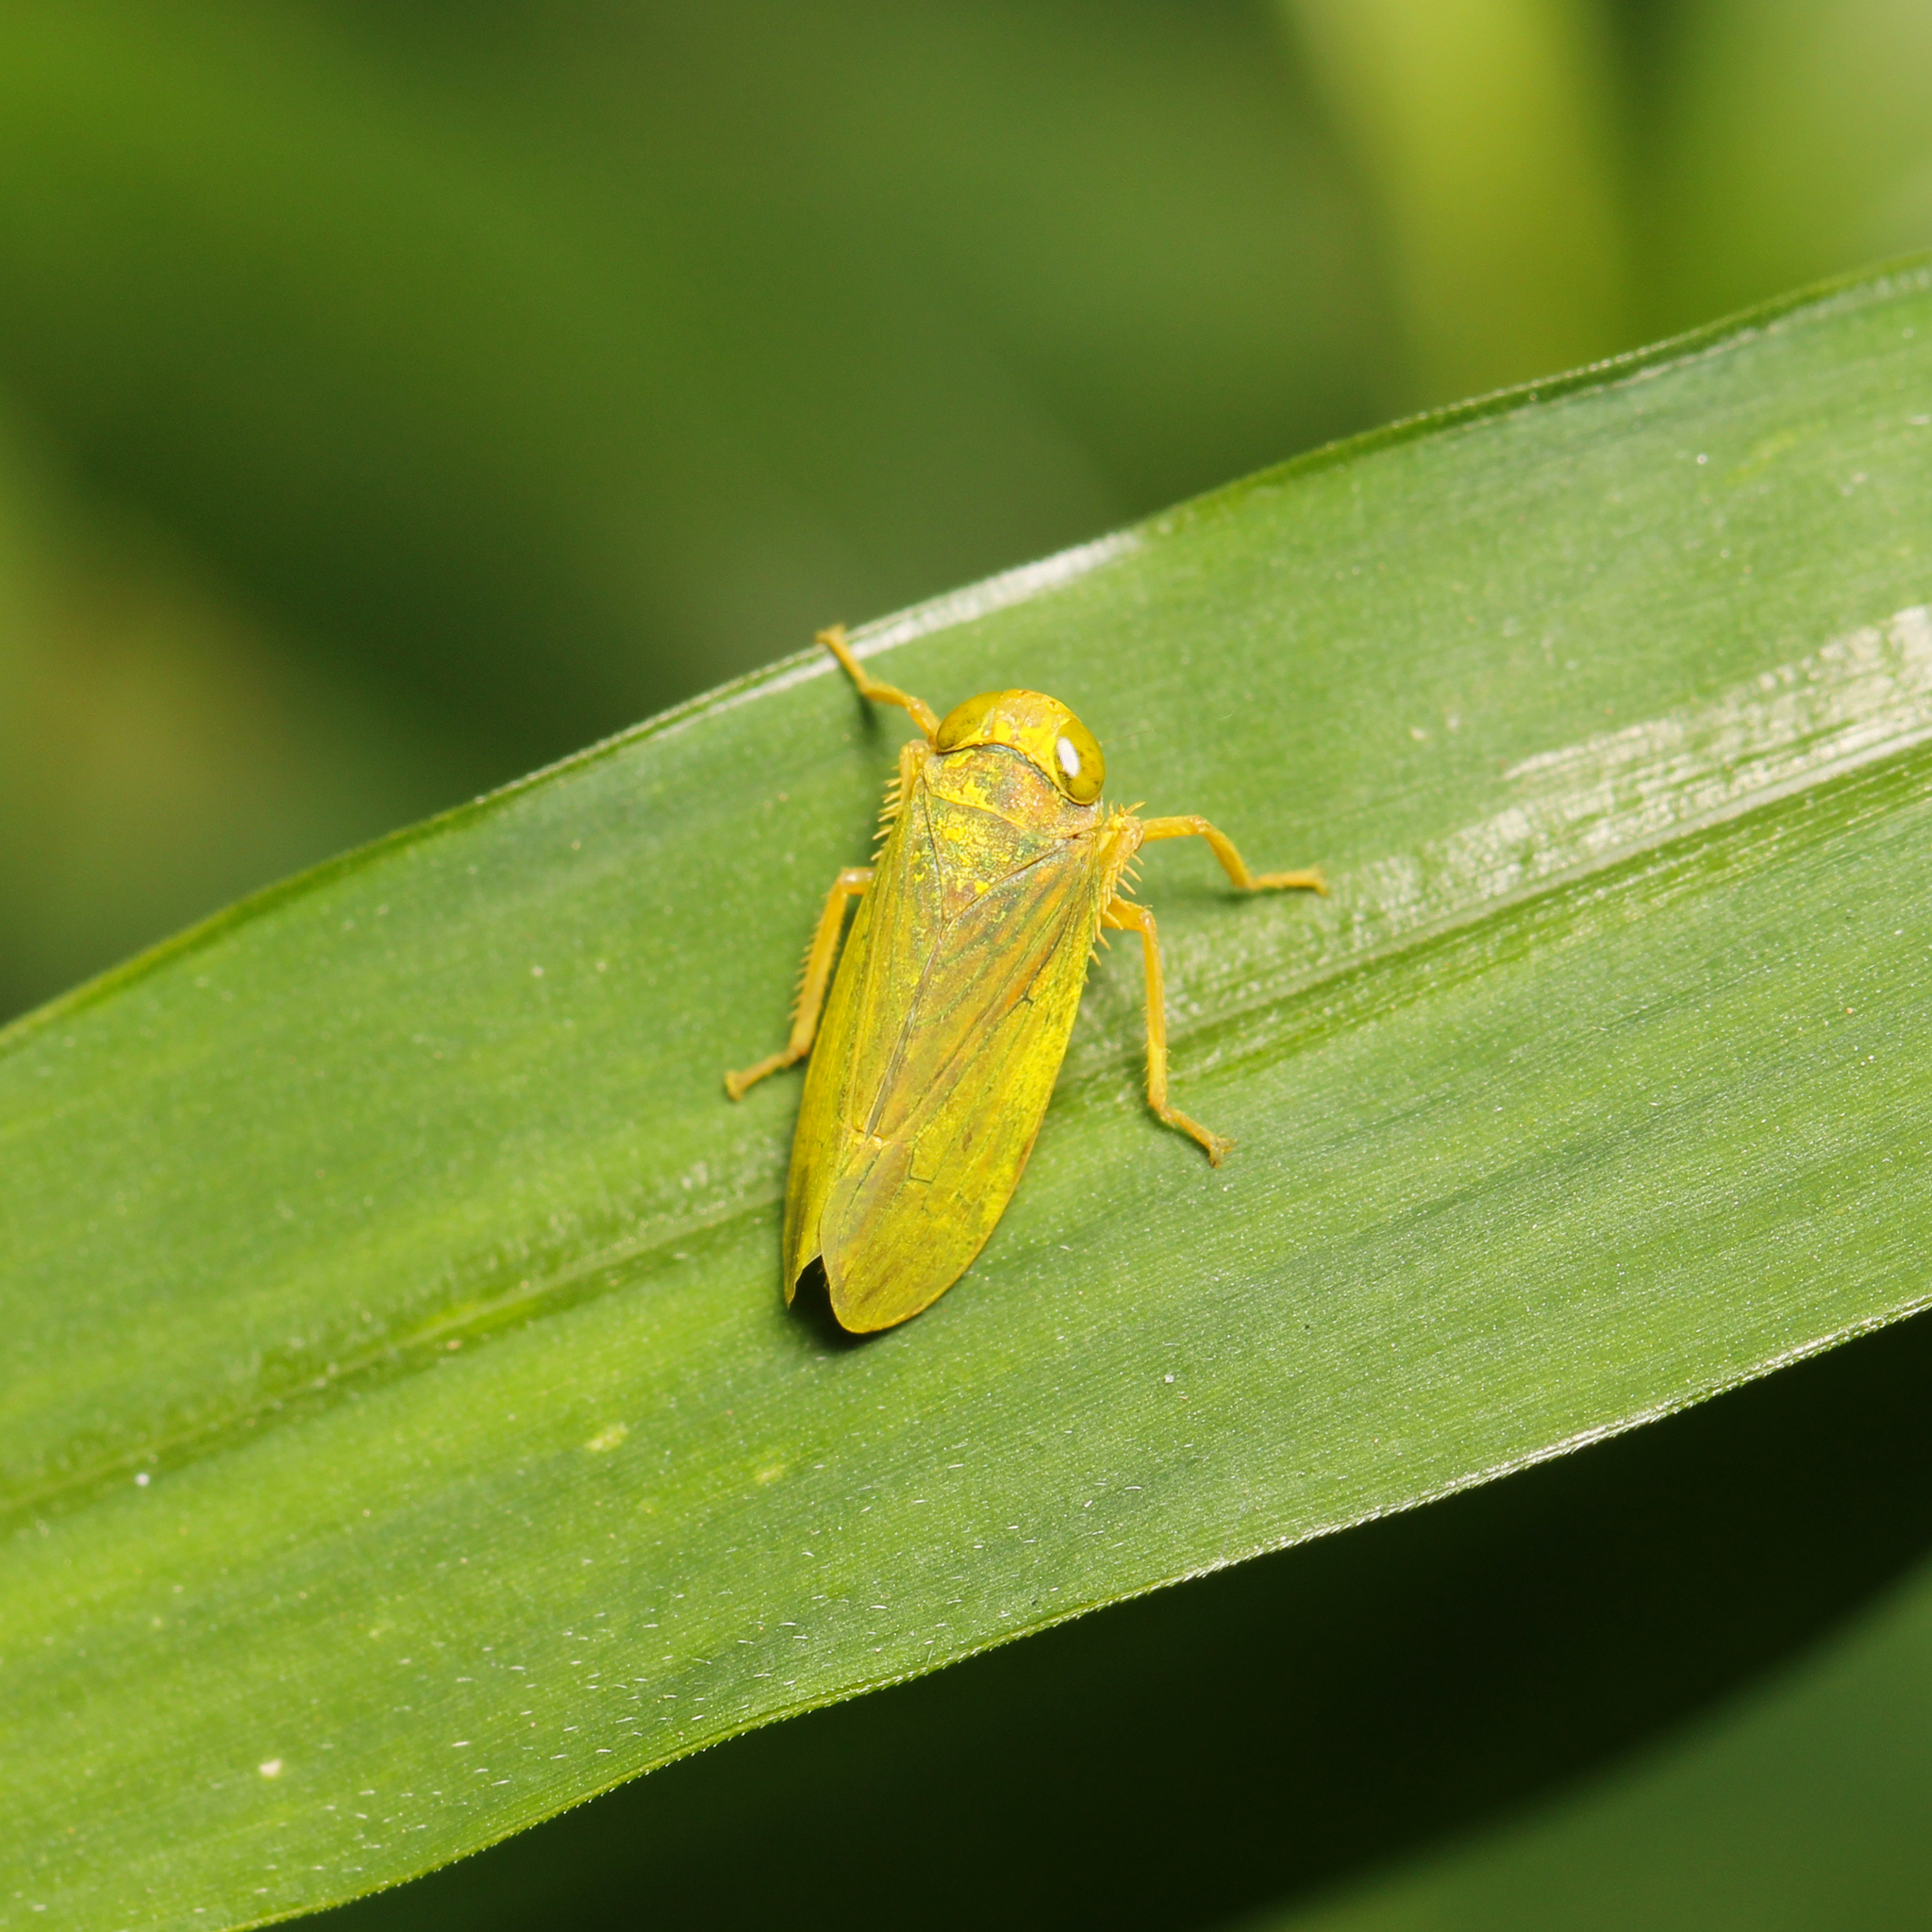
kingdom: Animalia
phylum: Arthropoda
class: Insecta
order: Hemiptera
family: Cicadellidae
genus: Jikradia
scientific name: Jikradia olitoria
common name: Coppery leafhopper
